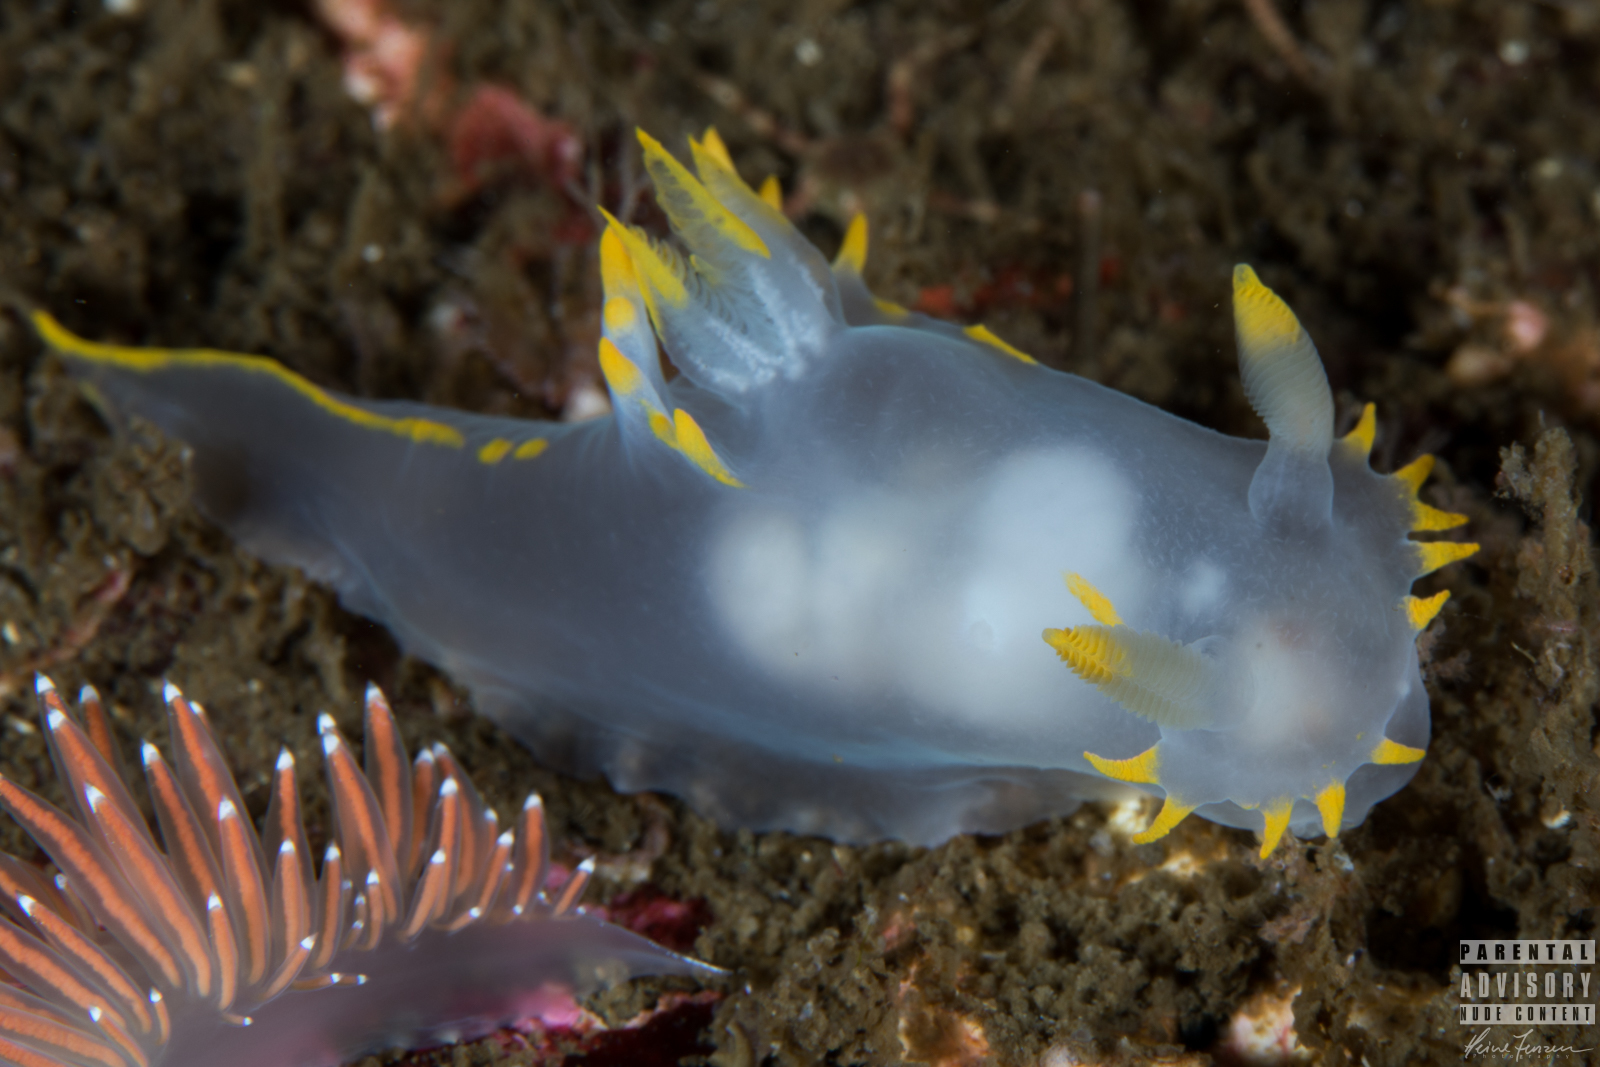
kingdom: Animalia
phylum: Mollusca
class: Gastropoda
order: Nudibranchia
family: Polyceridae
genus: Polycera
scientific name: Polycera faeroensis
